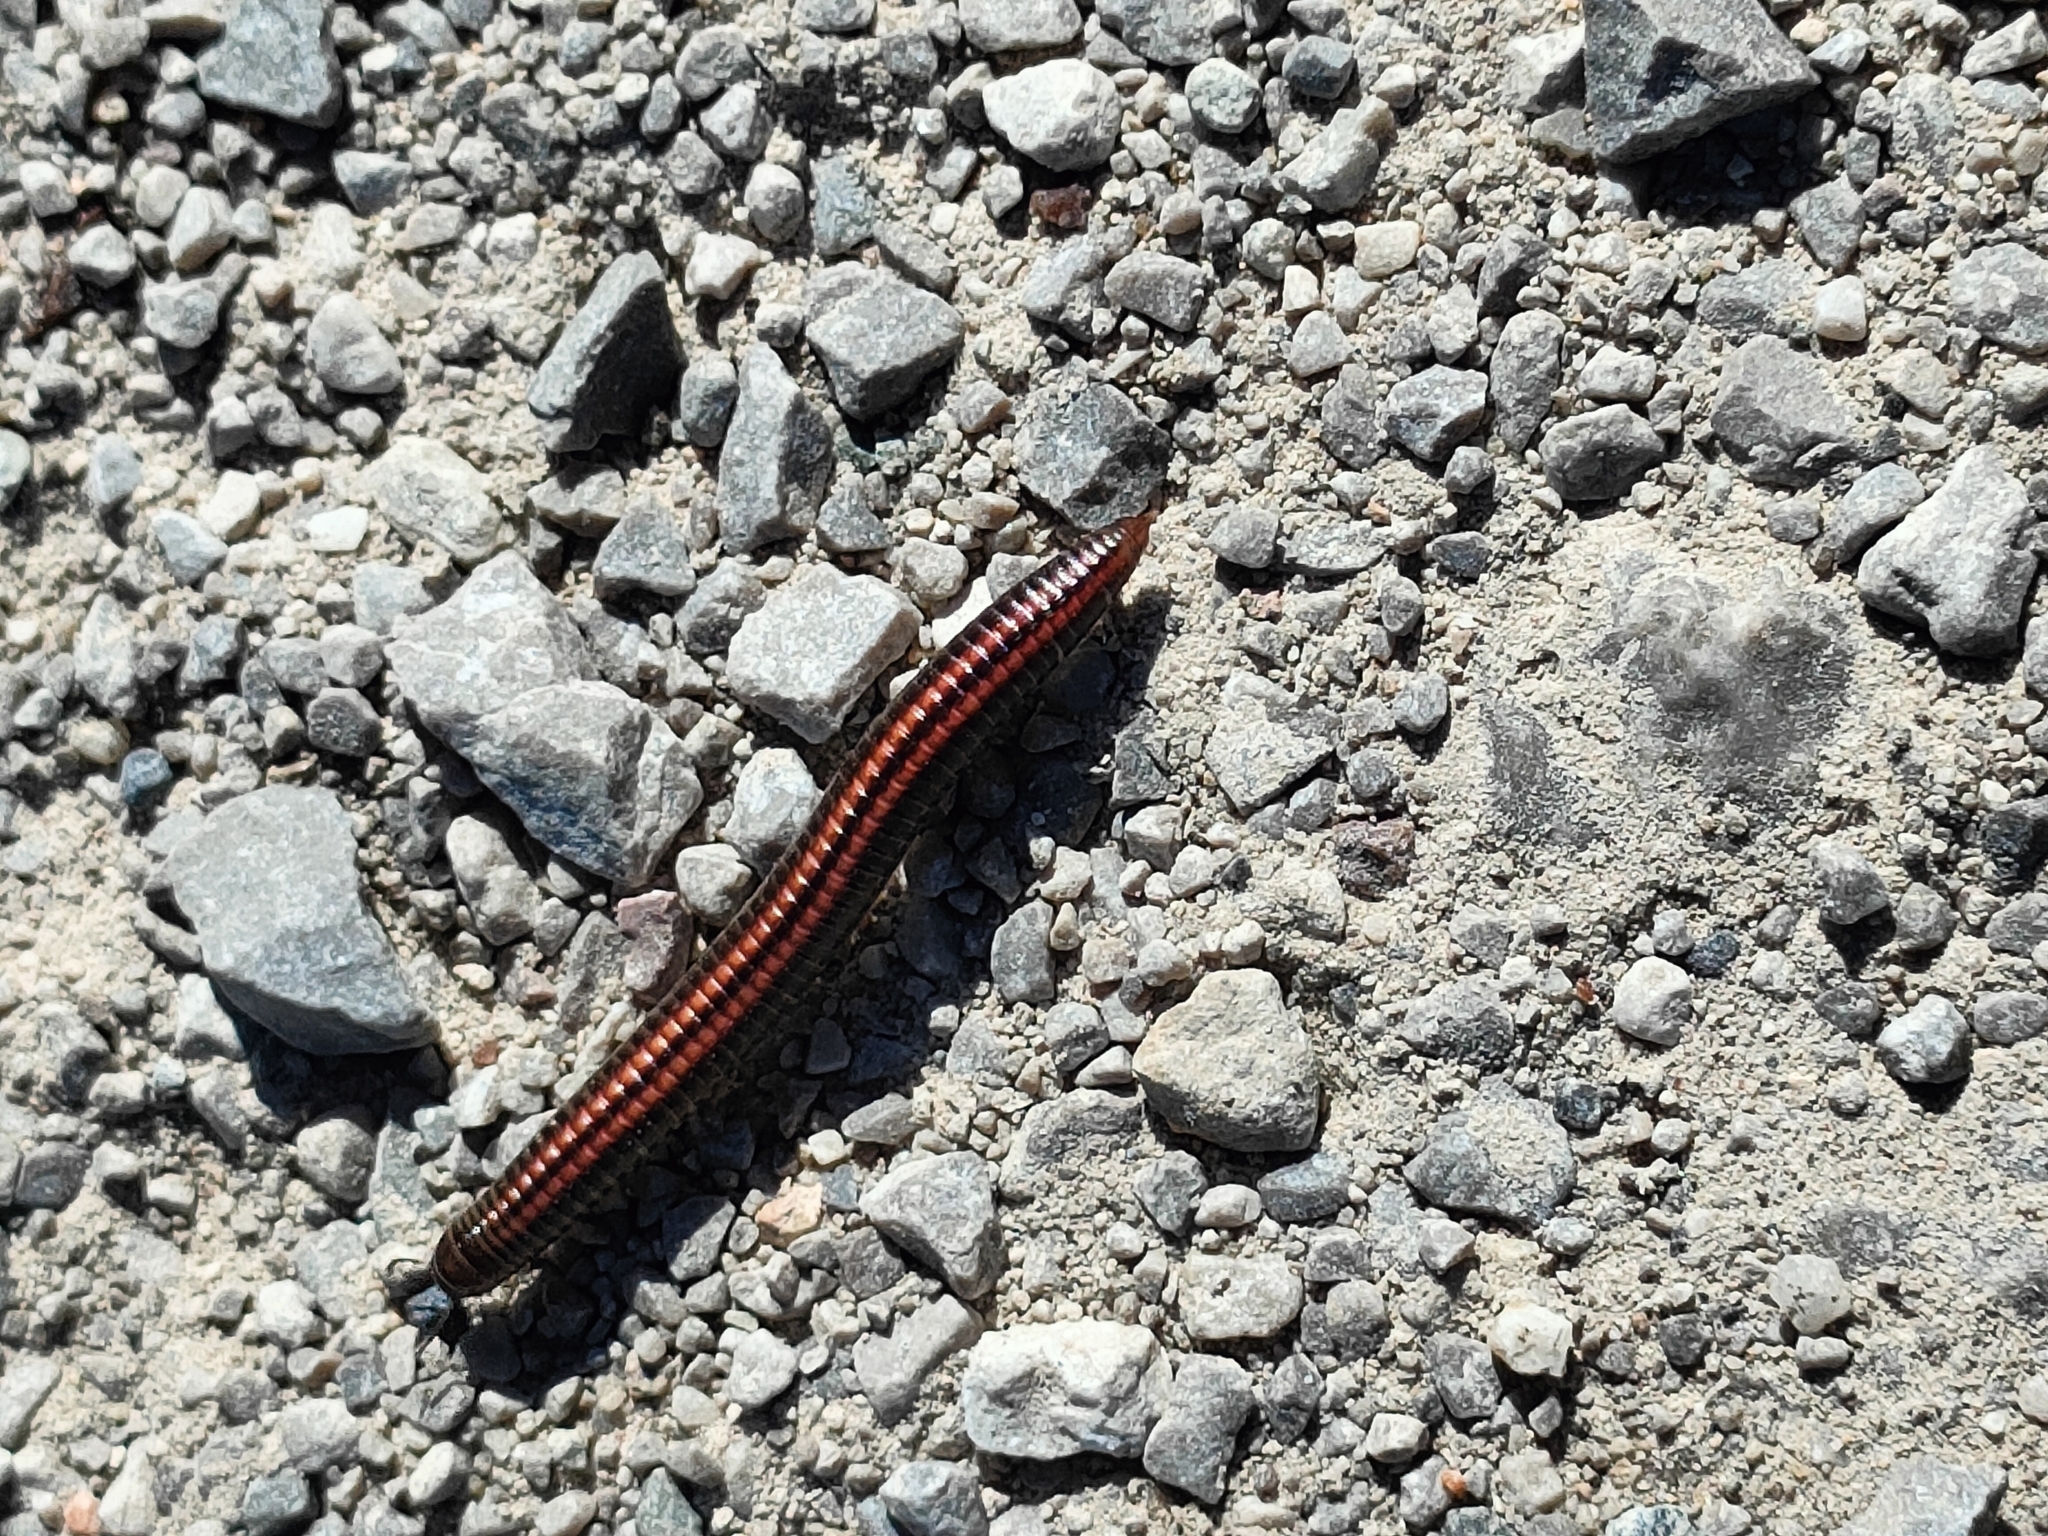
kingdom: Animalia
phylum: Arthropoda
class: Diplopoda
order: Julida
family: Julidae
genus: Ommatoiulus
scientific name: Ommatoiulus sabulosus
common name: Striped millipede
